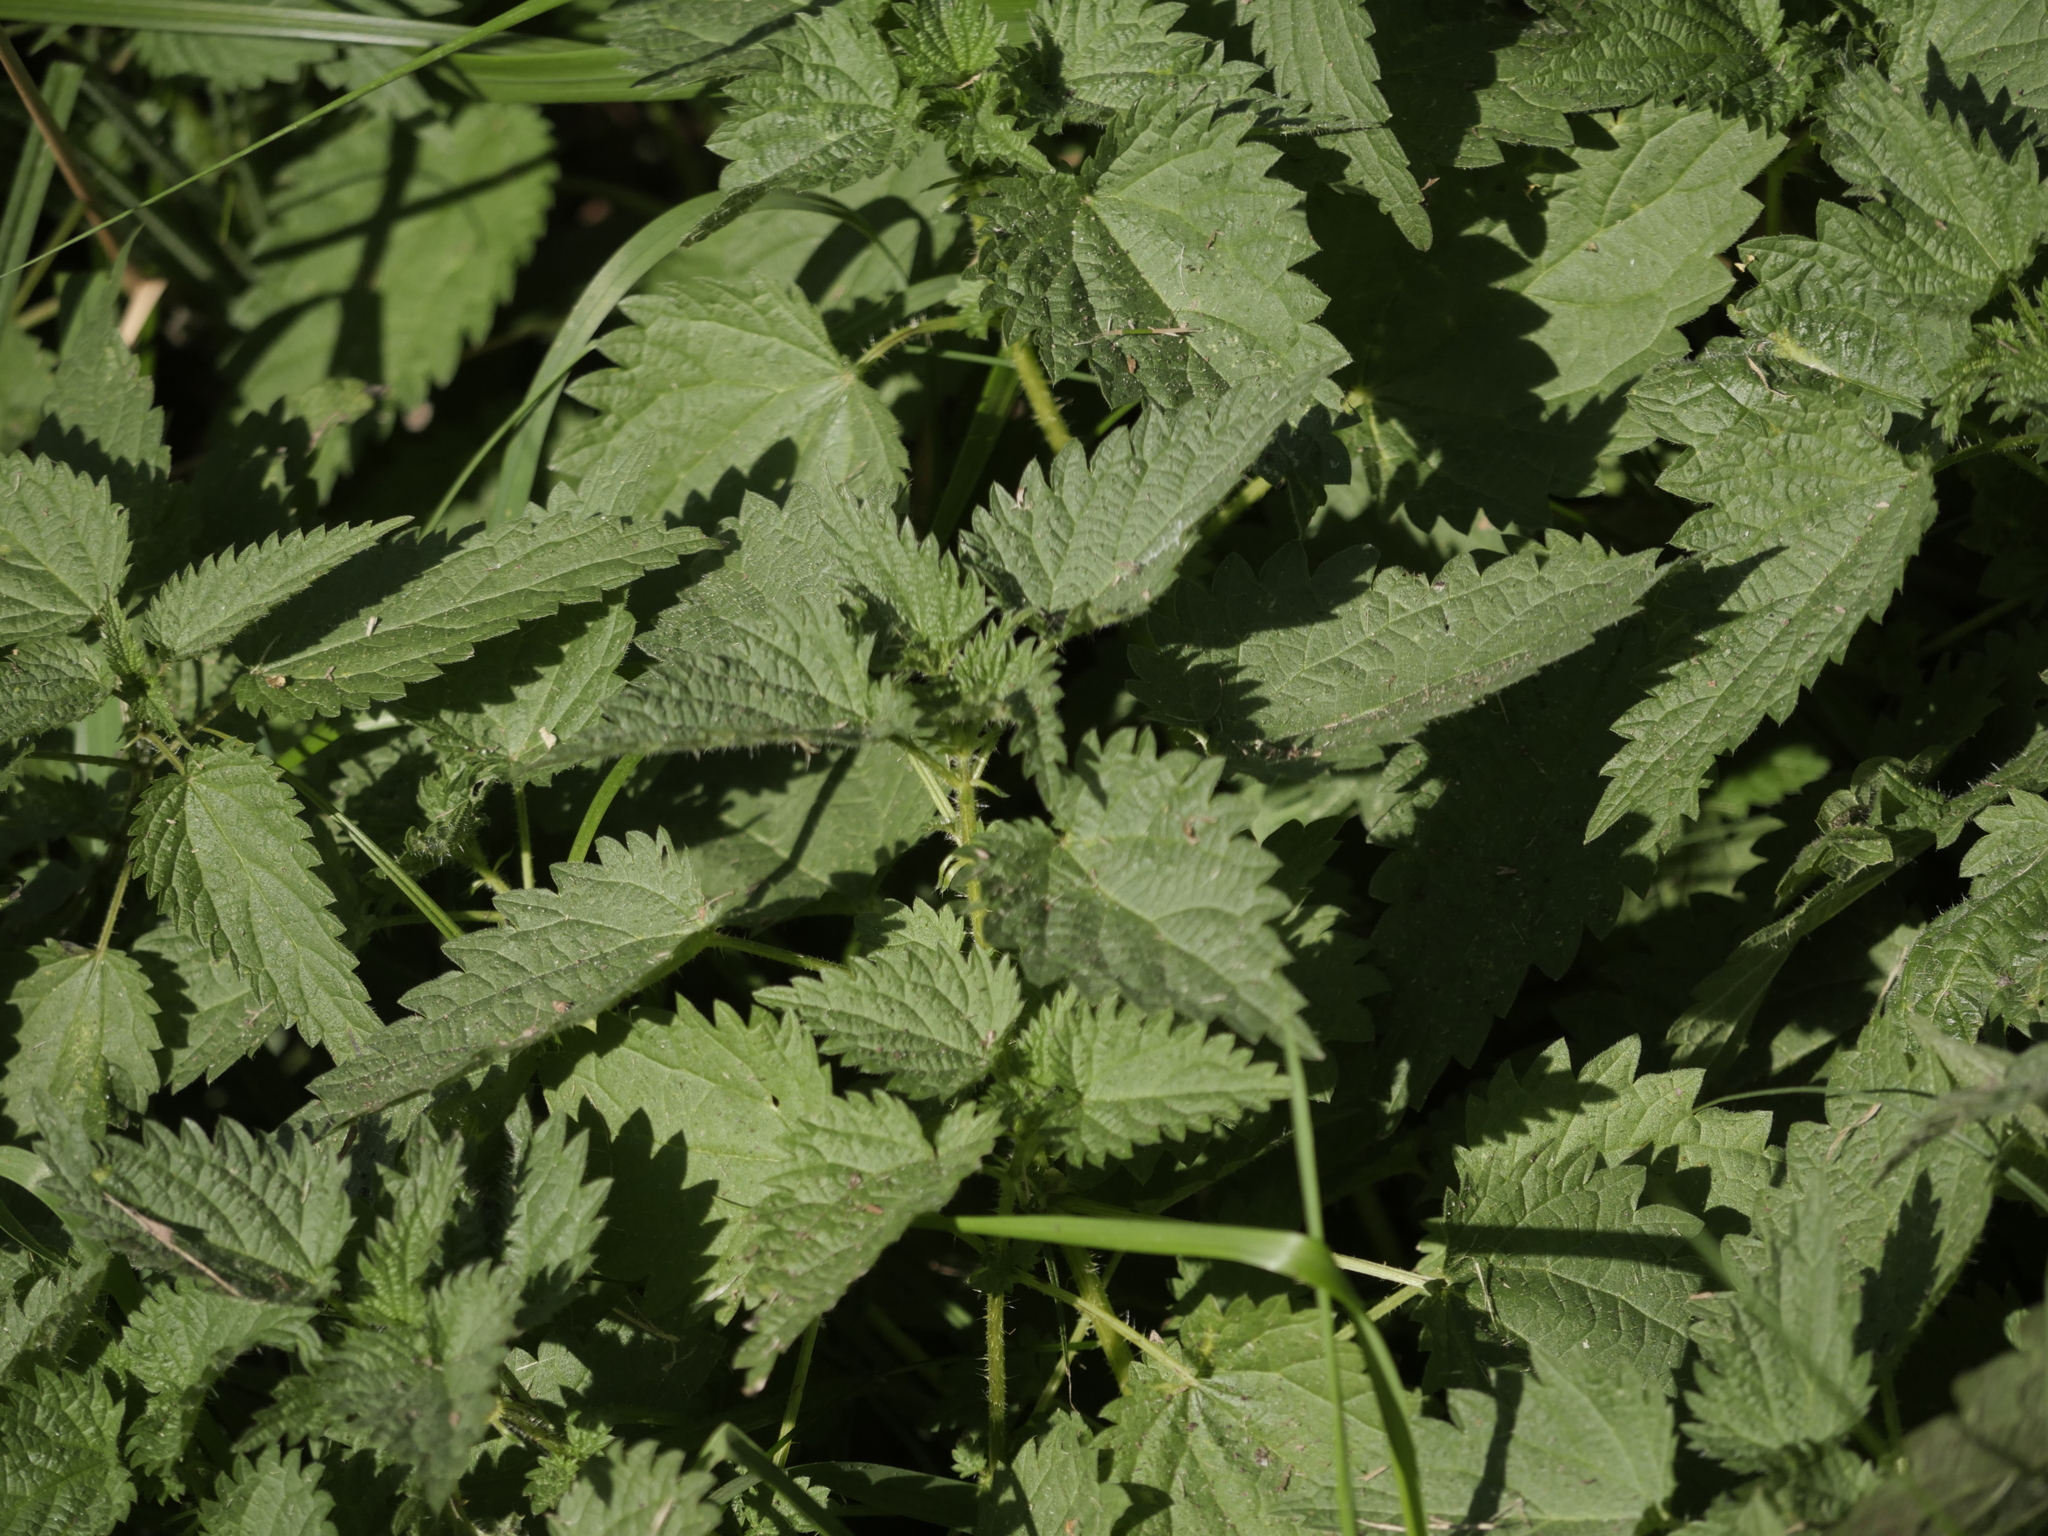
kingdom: Plantae
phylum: Tracheophyta
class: Magnoliopsida
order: Rosales
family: Urticaceae
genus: Urtica
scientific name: Urtica dioica
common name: Common nettle
